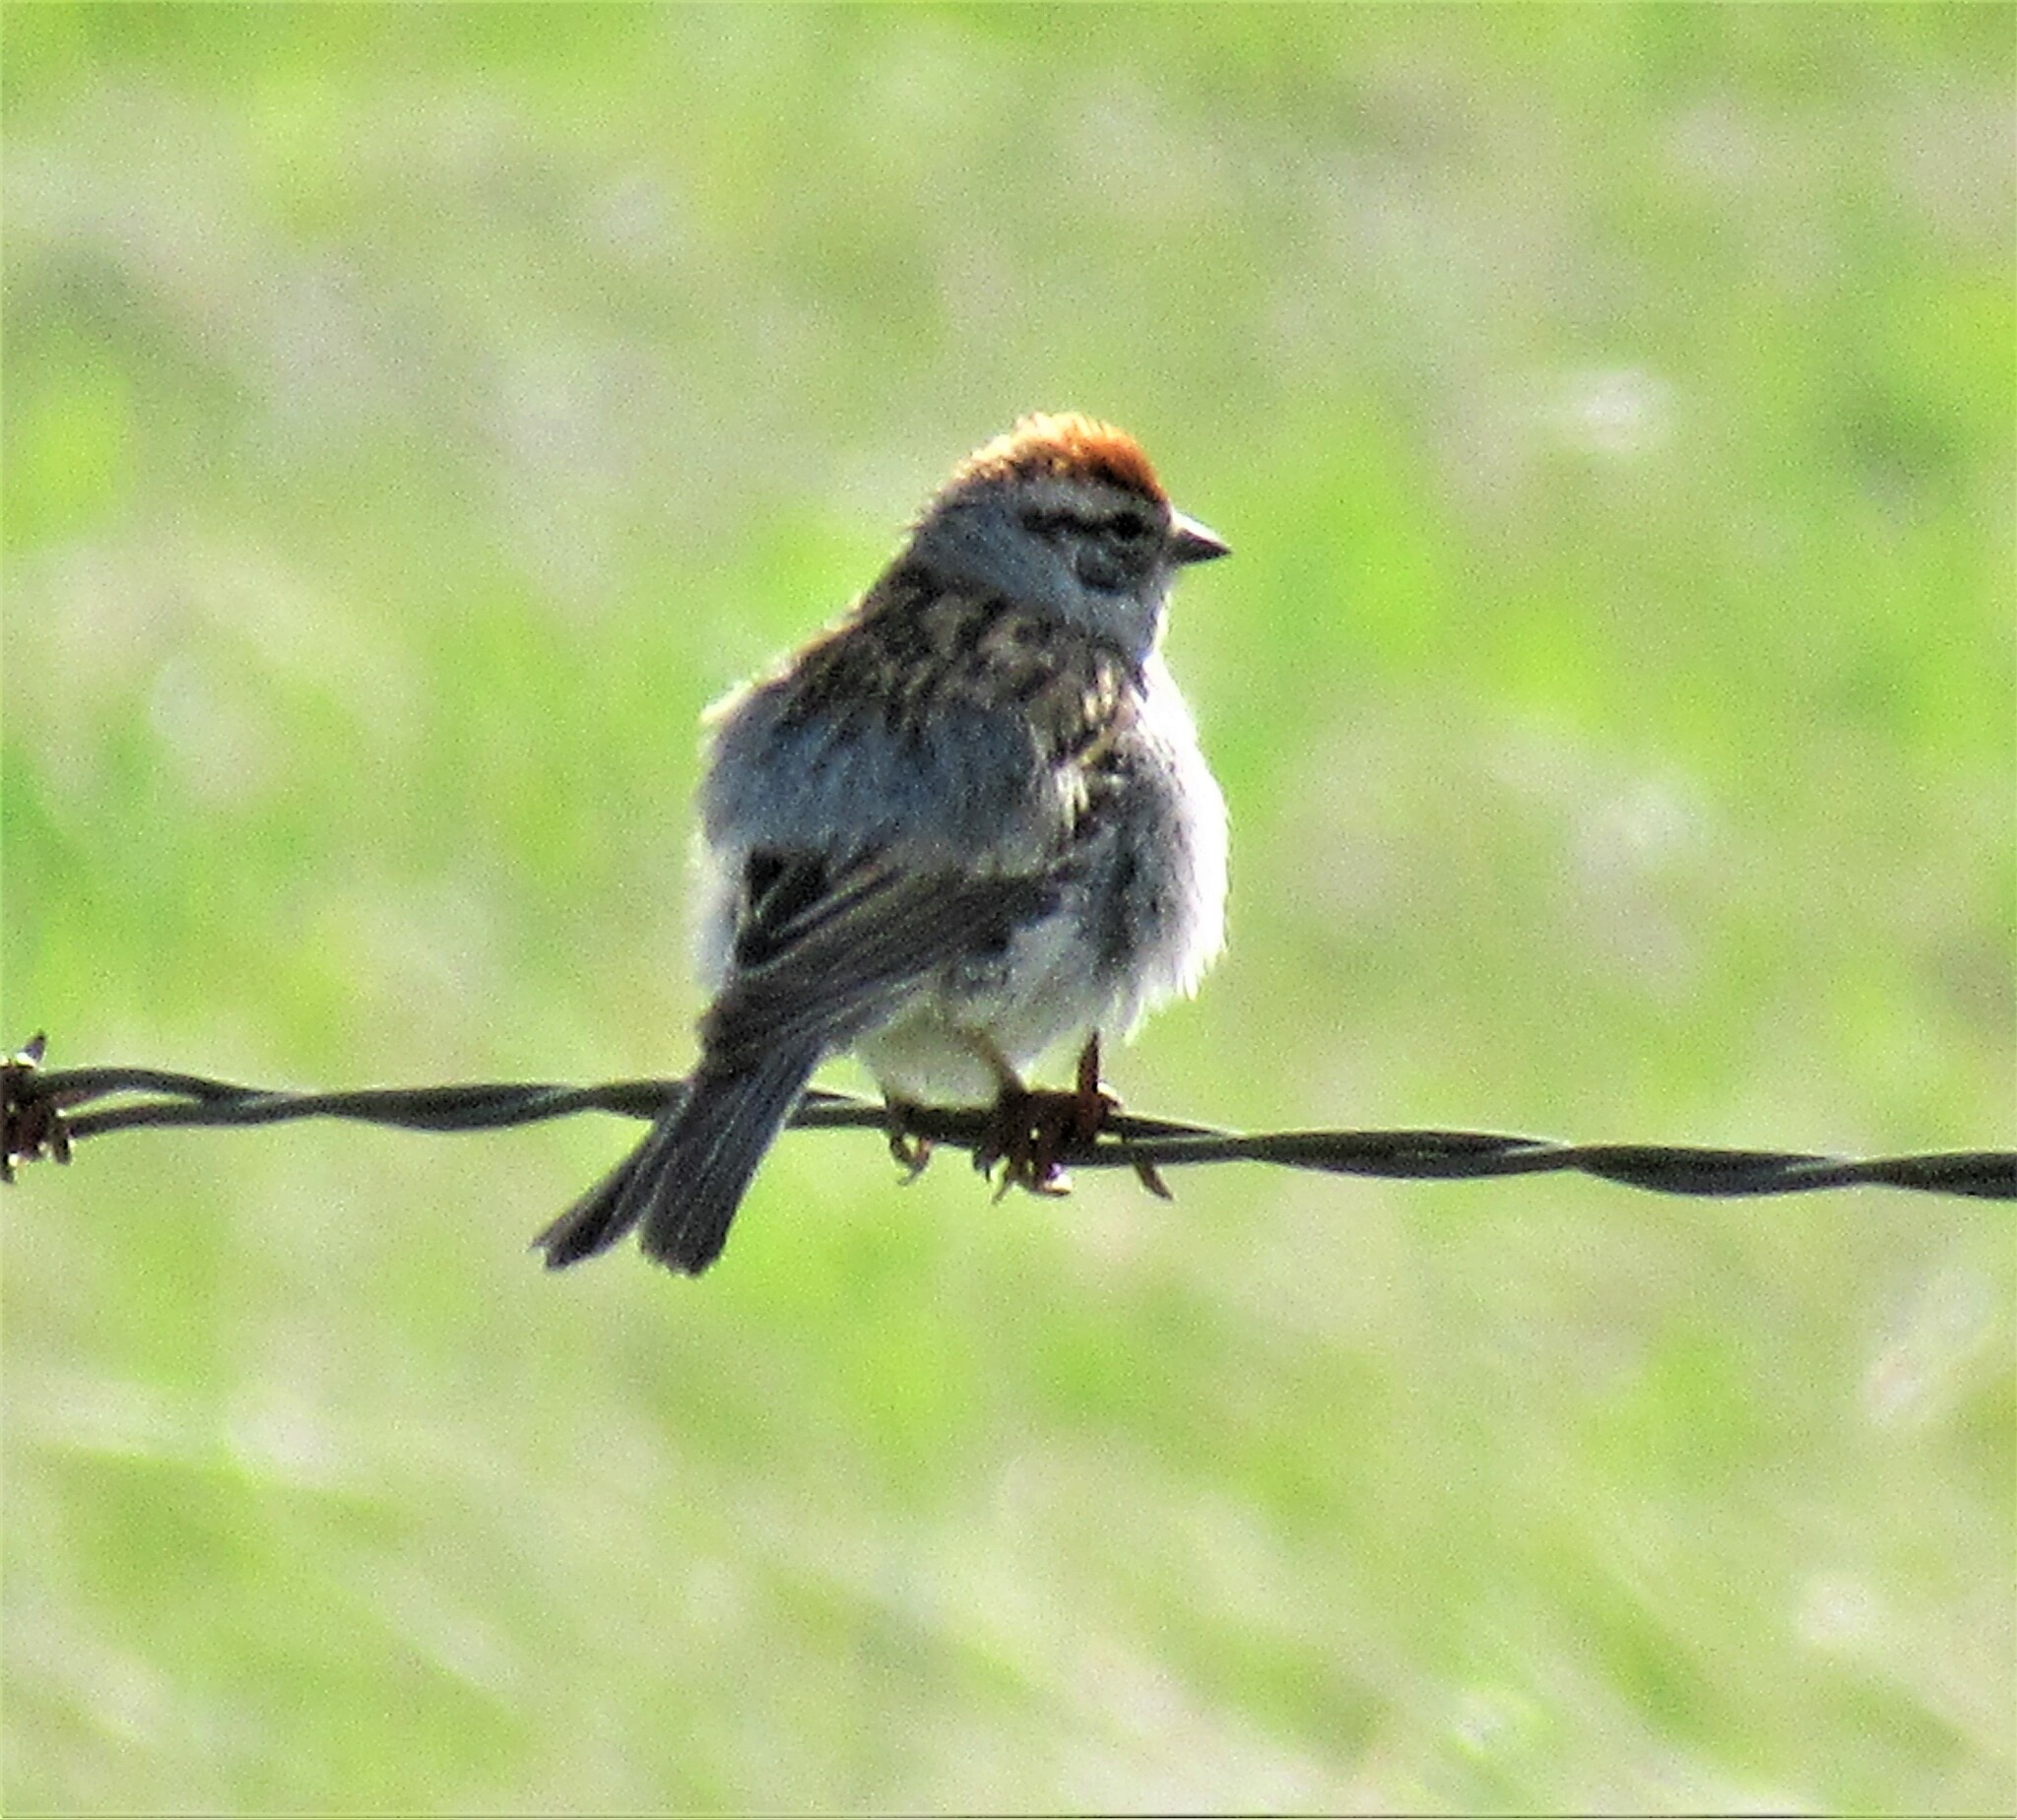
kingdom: Animalia
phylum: Chordata
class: Aves
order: Passeriformes
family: Passerellidae
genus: Spizella
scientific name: Spizella passerina
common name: Chipping sparrow
